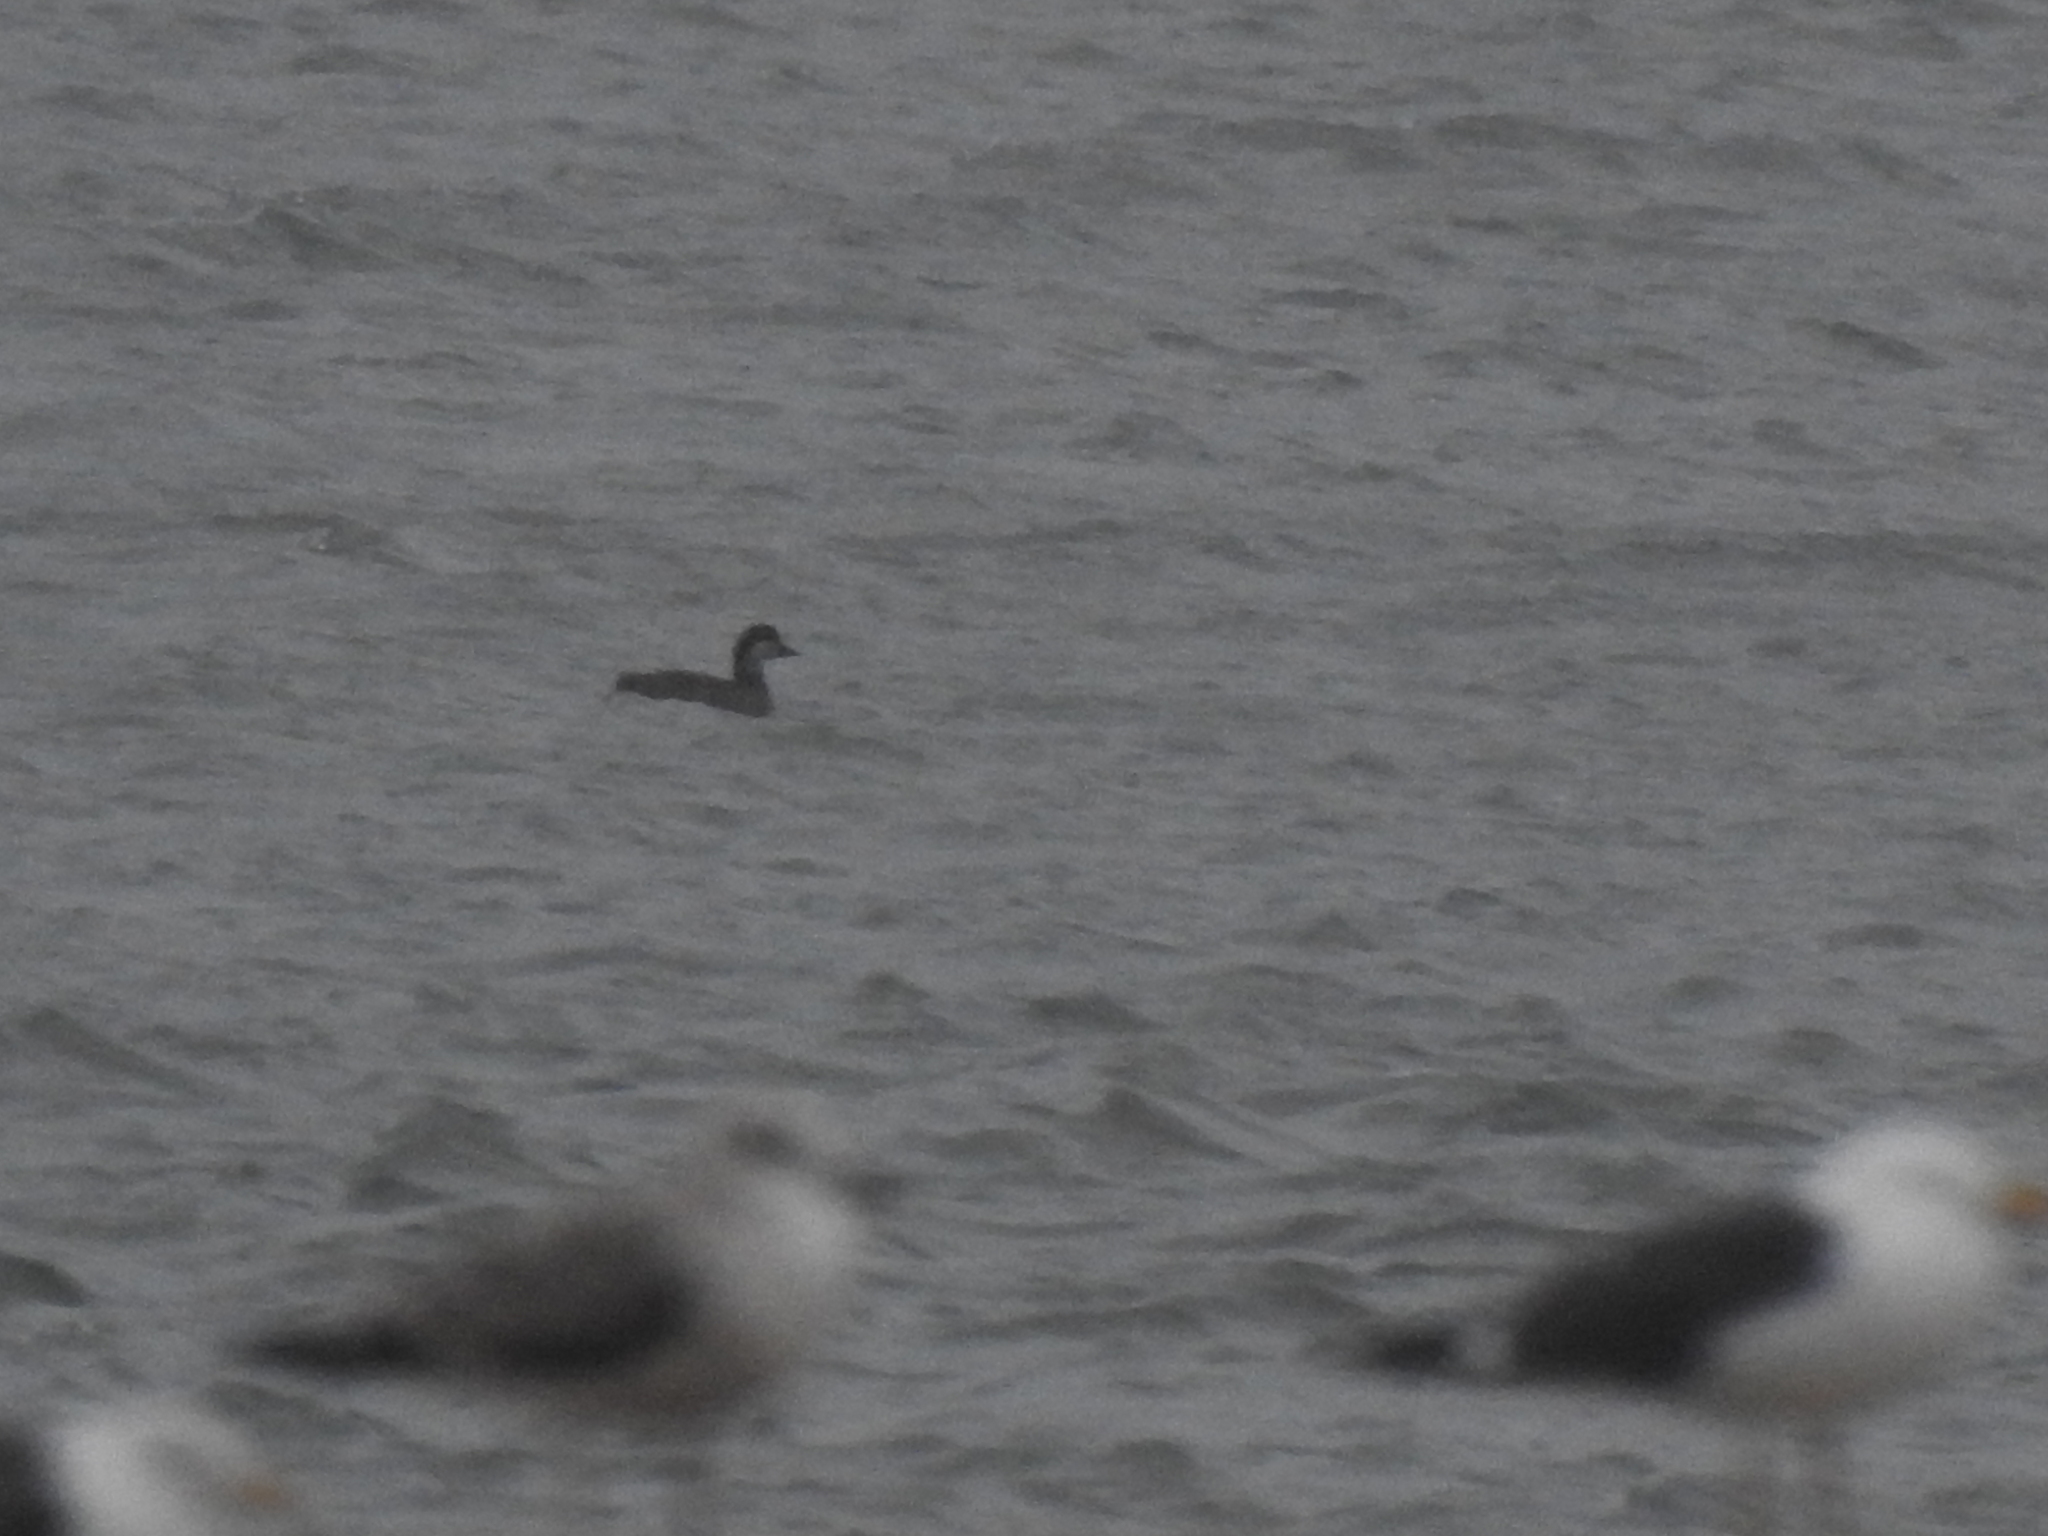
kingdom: Animalia
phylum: Chordata
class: Aves
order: Anseriformes
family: Anatidae
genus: Melanitta
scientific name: Melanitta nigra
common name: Common scoter
